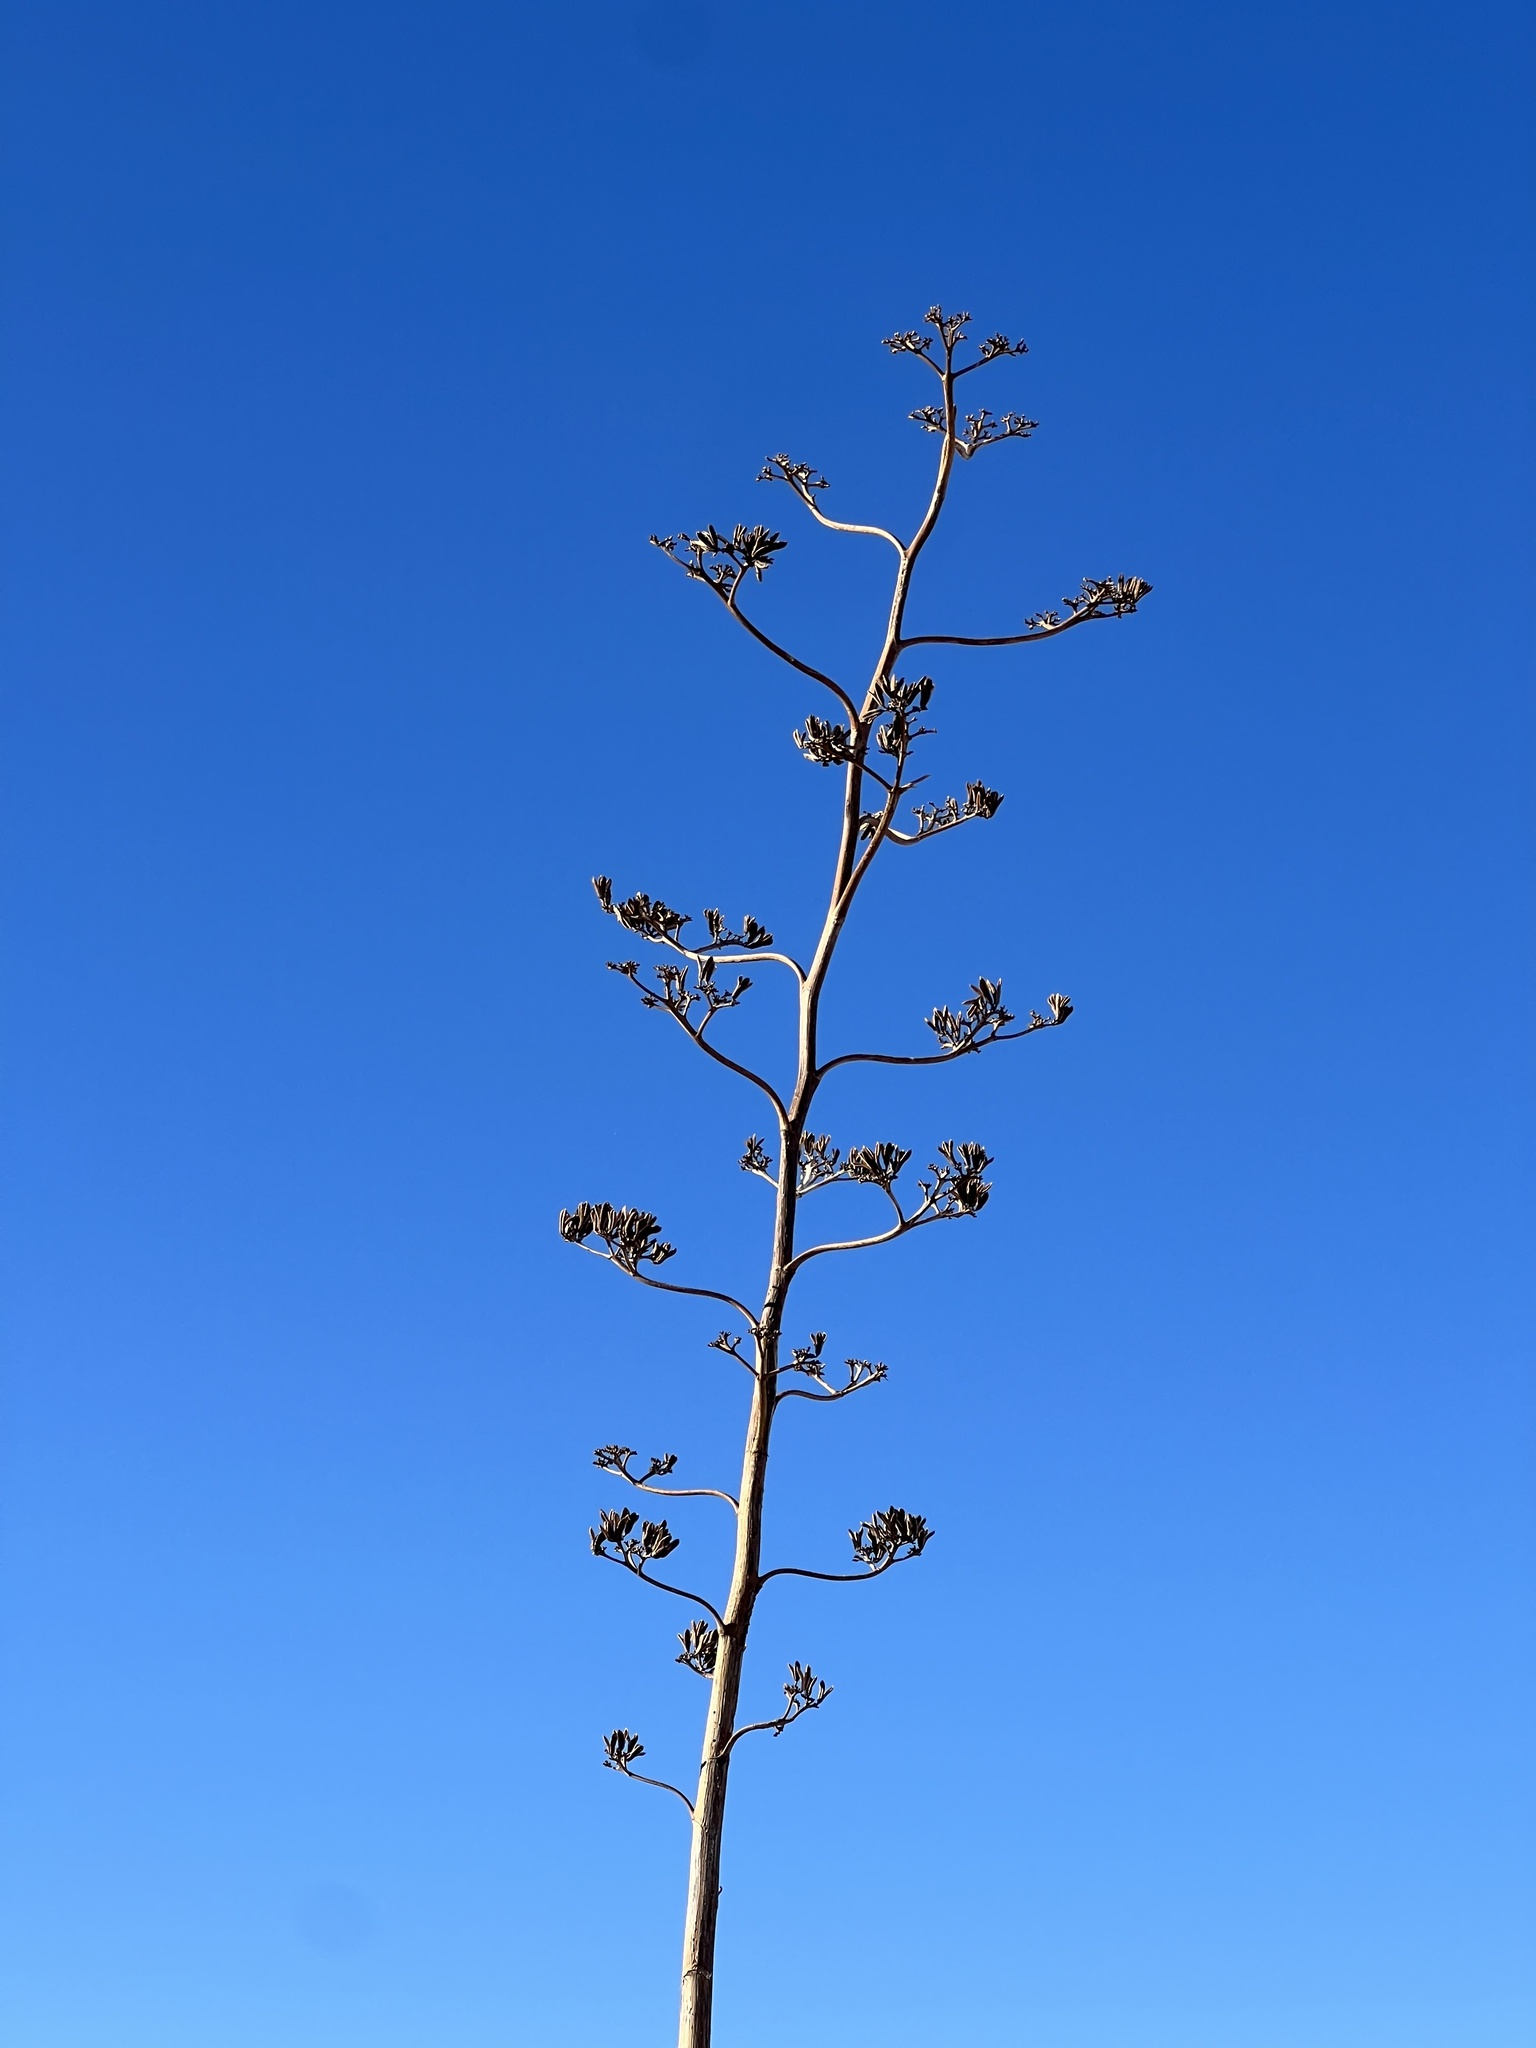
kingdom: Plantae
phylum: Tracheophyta
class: Liliopsida
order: Asparagales
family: Asparagaceae
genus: Agave
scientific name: Agave palmeri
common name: Palmer agave
